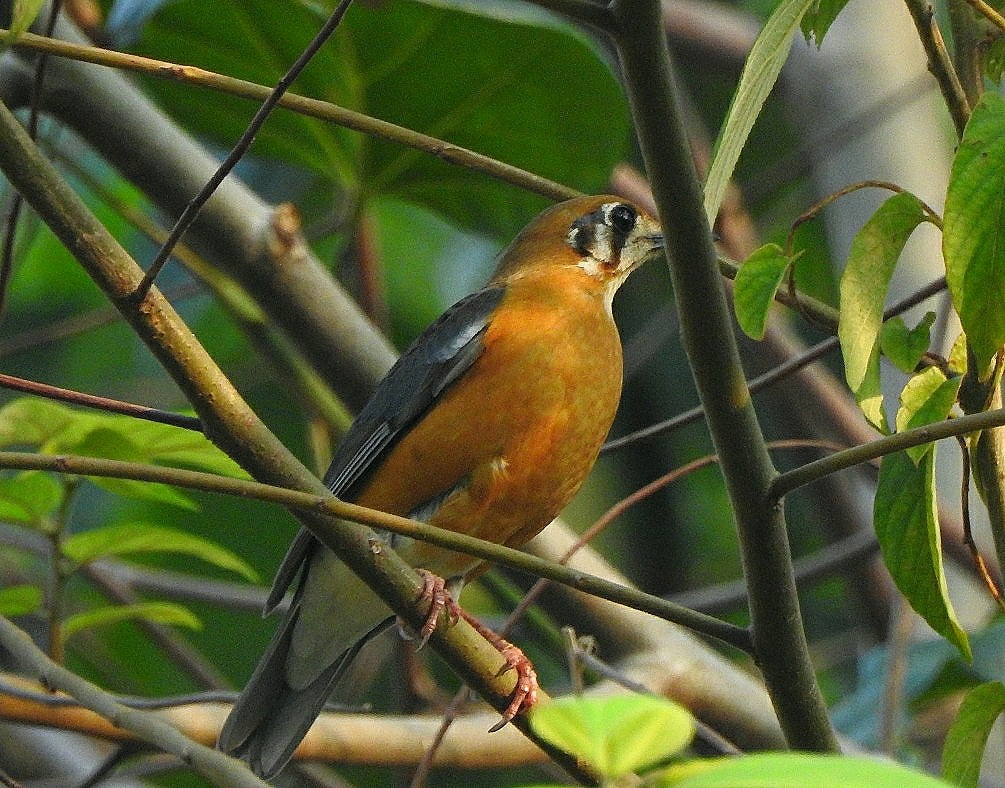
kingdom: Animalia
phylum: Chordata
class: Aves
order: Passeriformes
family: Turdidae
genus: Geokichla
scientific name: Geokichla citrina
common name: Orange-headed thrush
